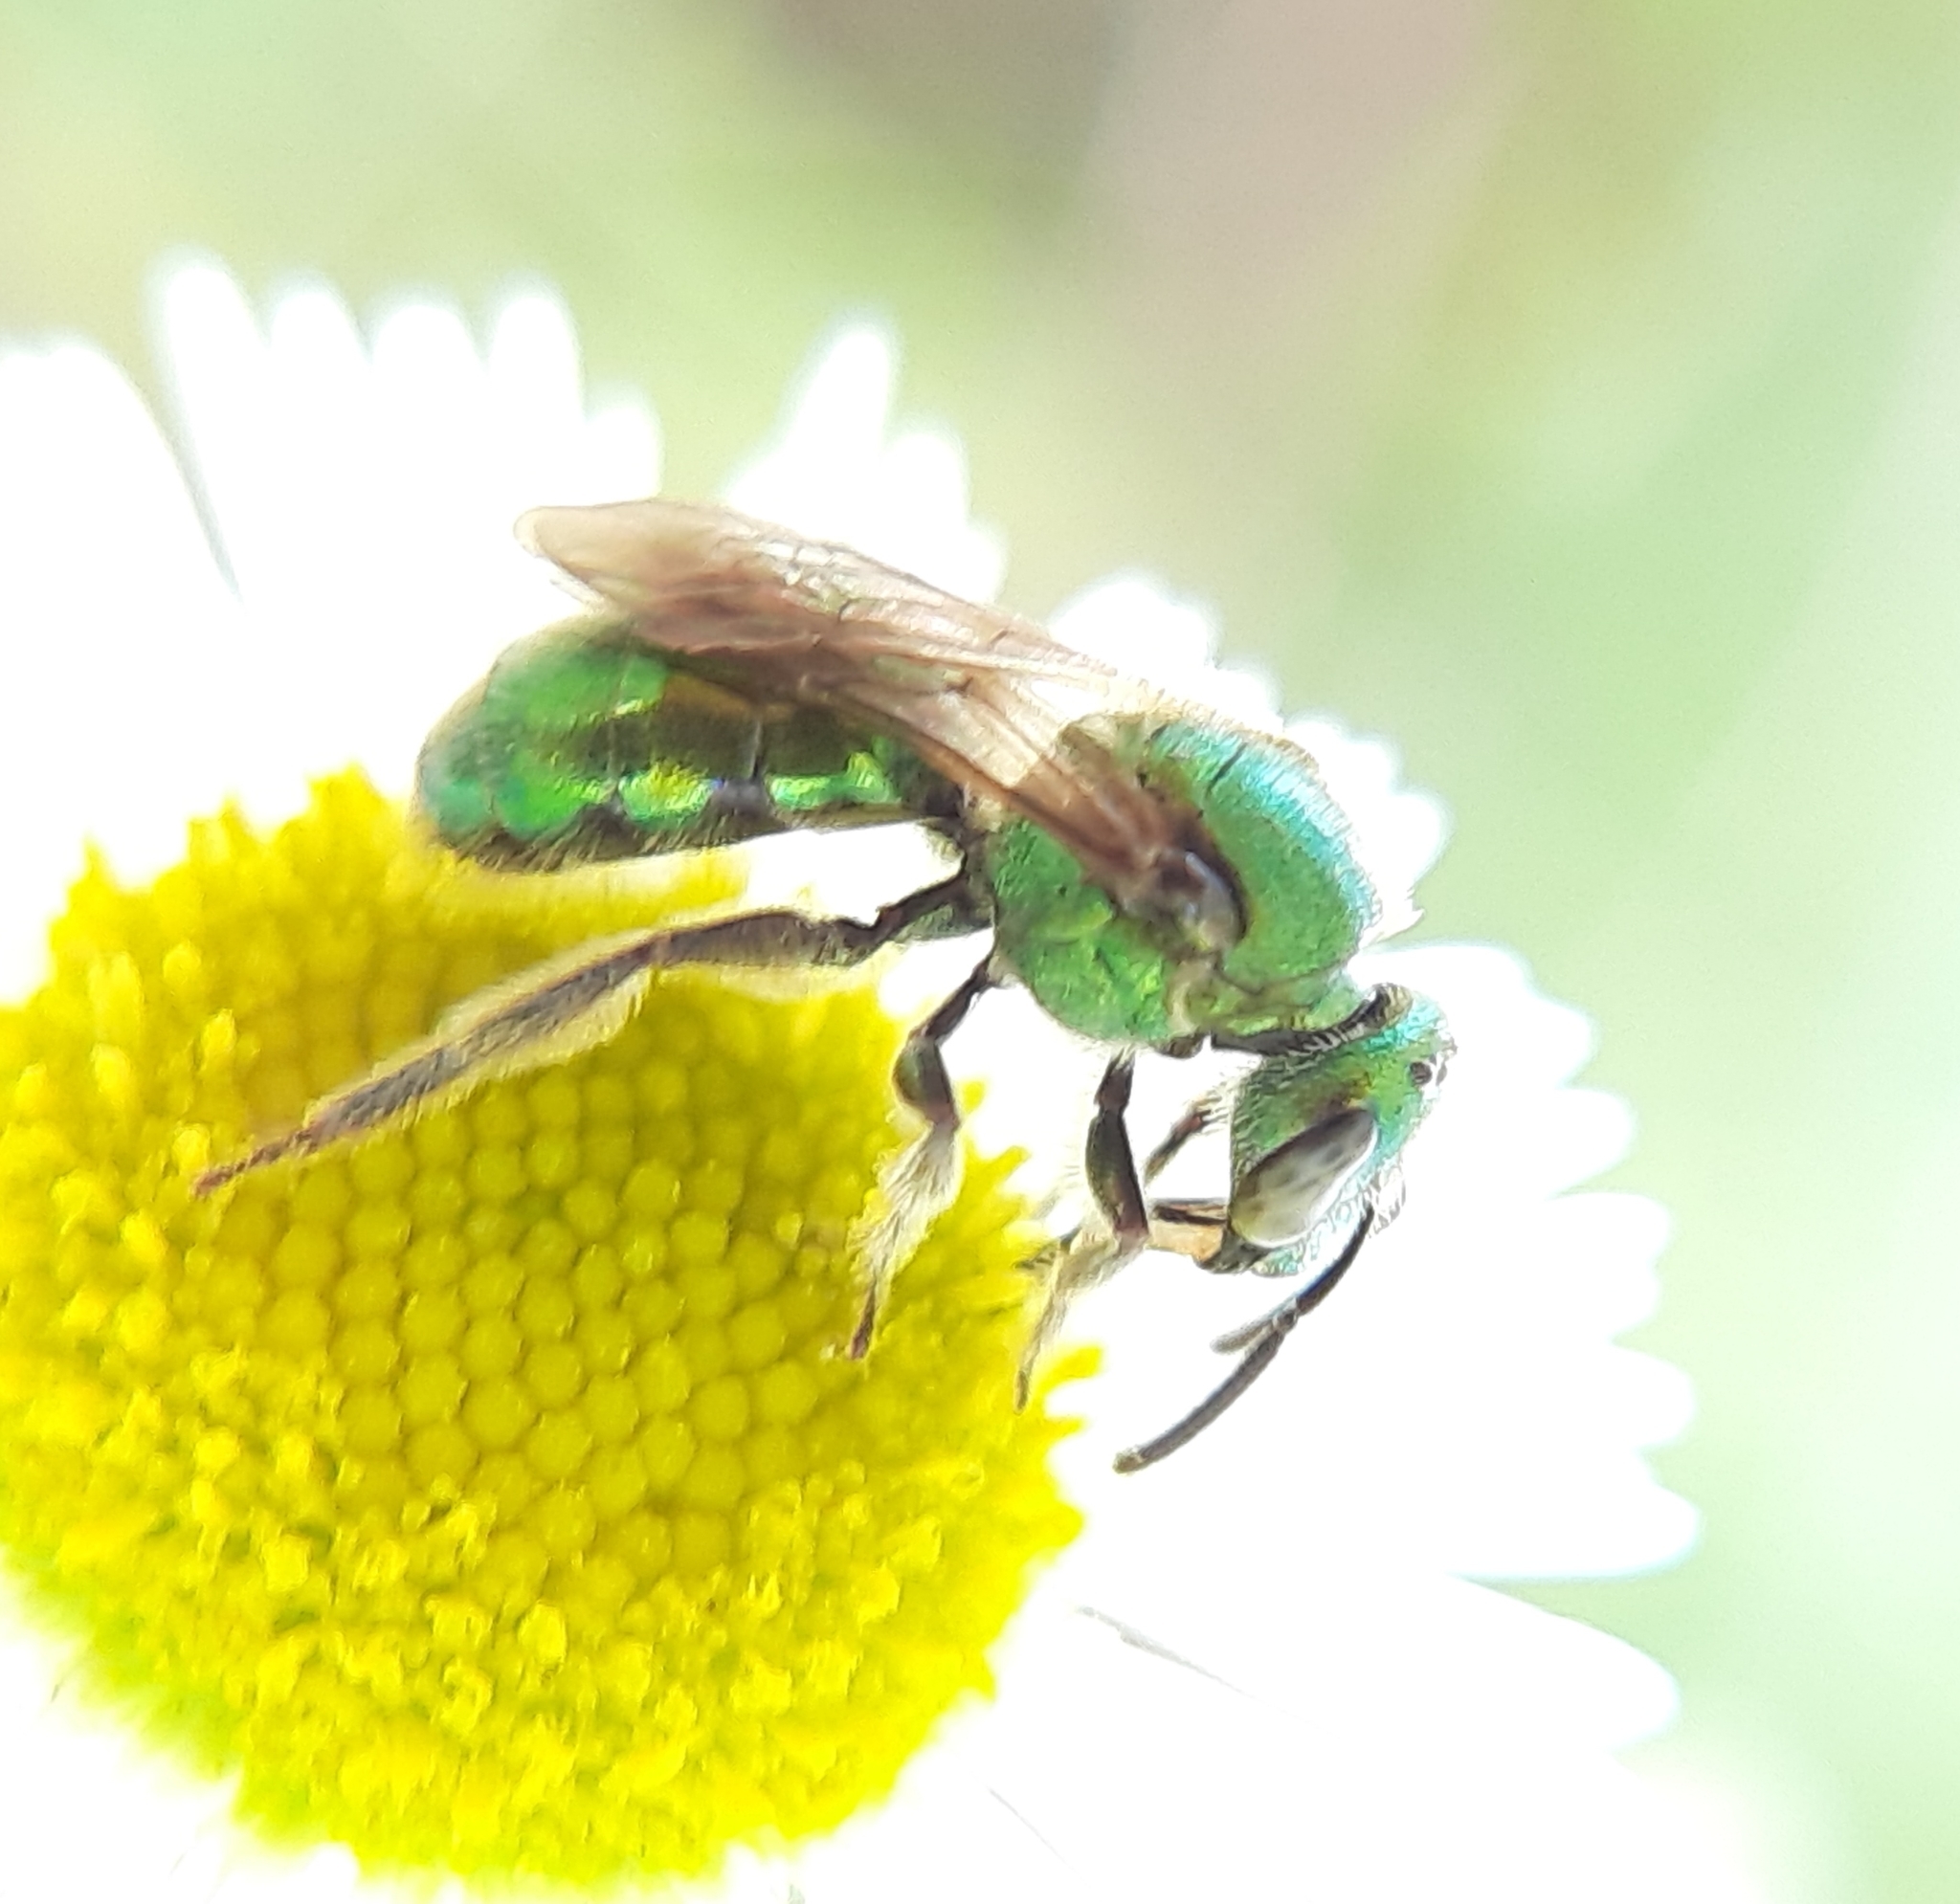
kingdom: Animalia
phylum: Arthropoda
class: Insecta
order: Hymenoptera
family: Halictidae
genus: Augochlorella
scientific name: Augochlorella aurata
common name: Golden sweat bee
